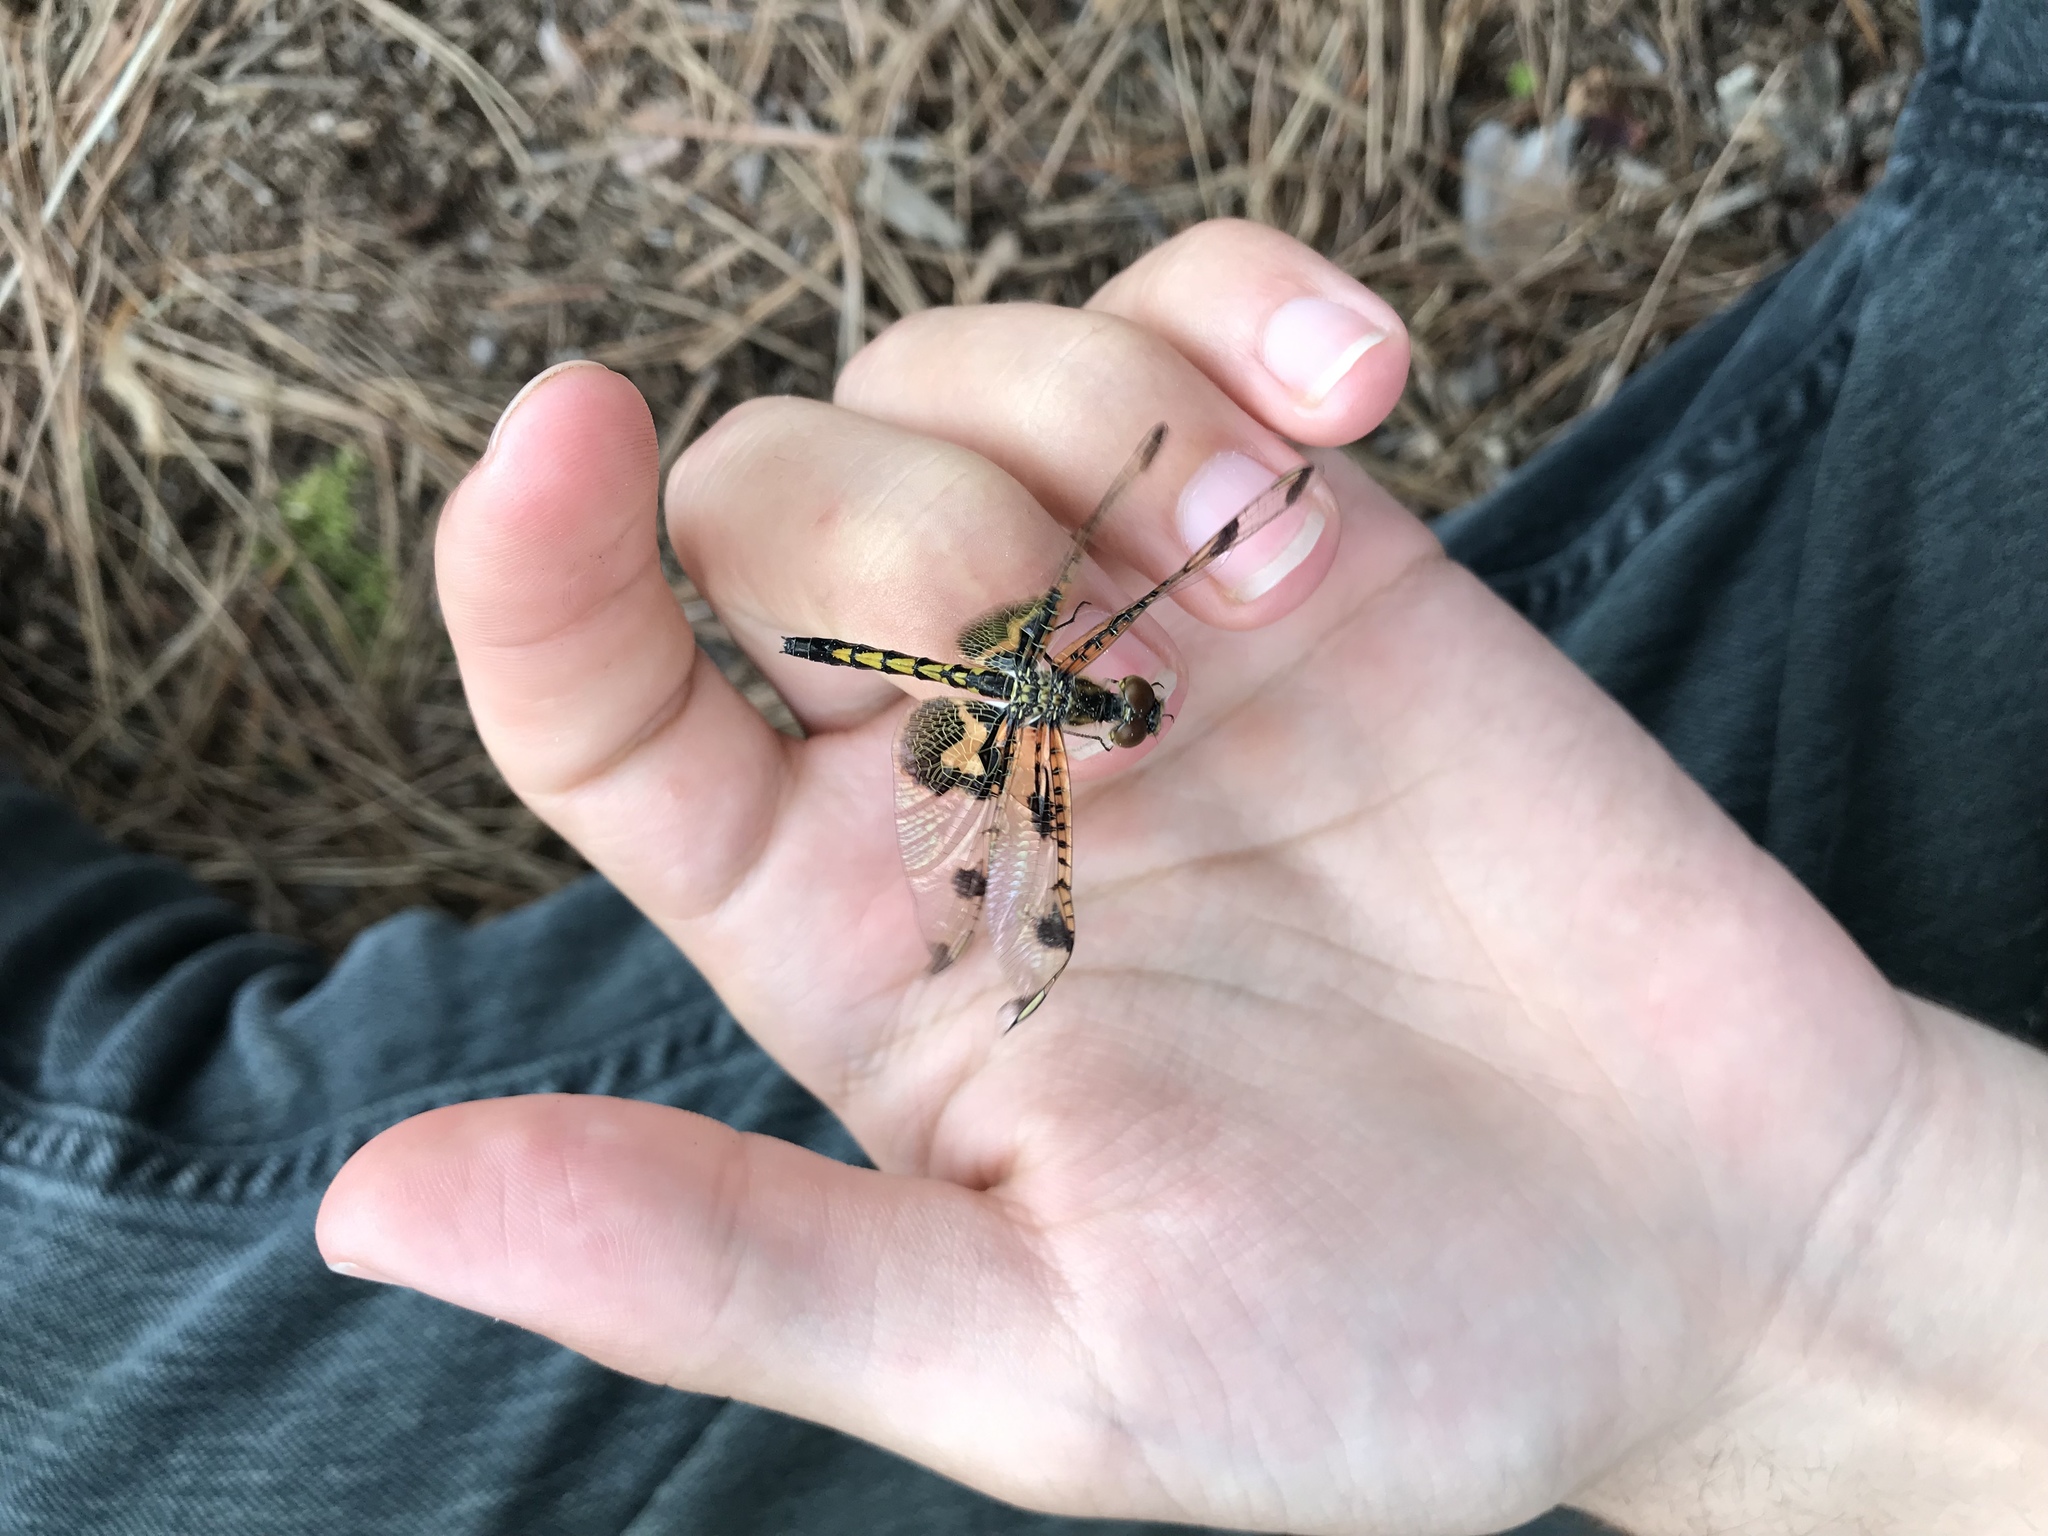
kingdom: Animalia
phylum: Arthropoda
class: Insecta
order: Odonata
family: Libellulidae
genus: Celithemis
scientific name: Celithemis elisa
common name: Calico pennant
